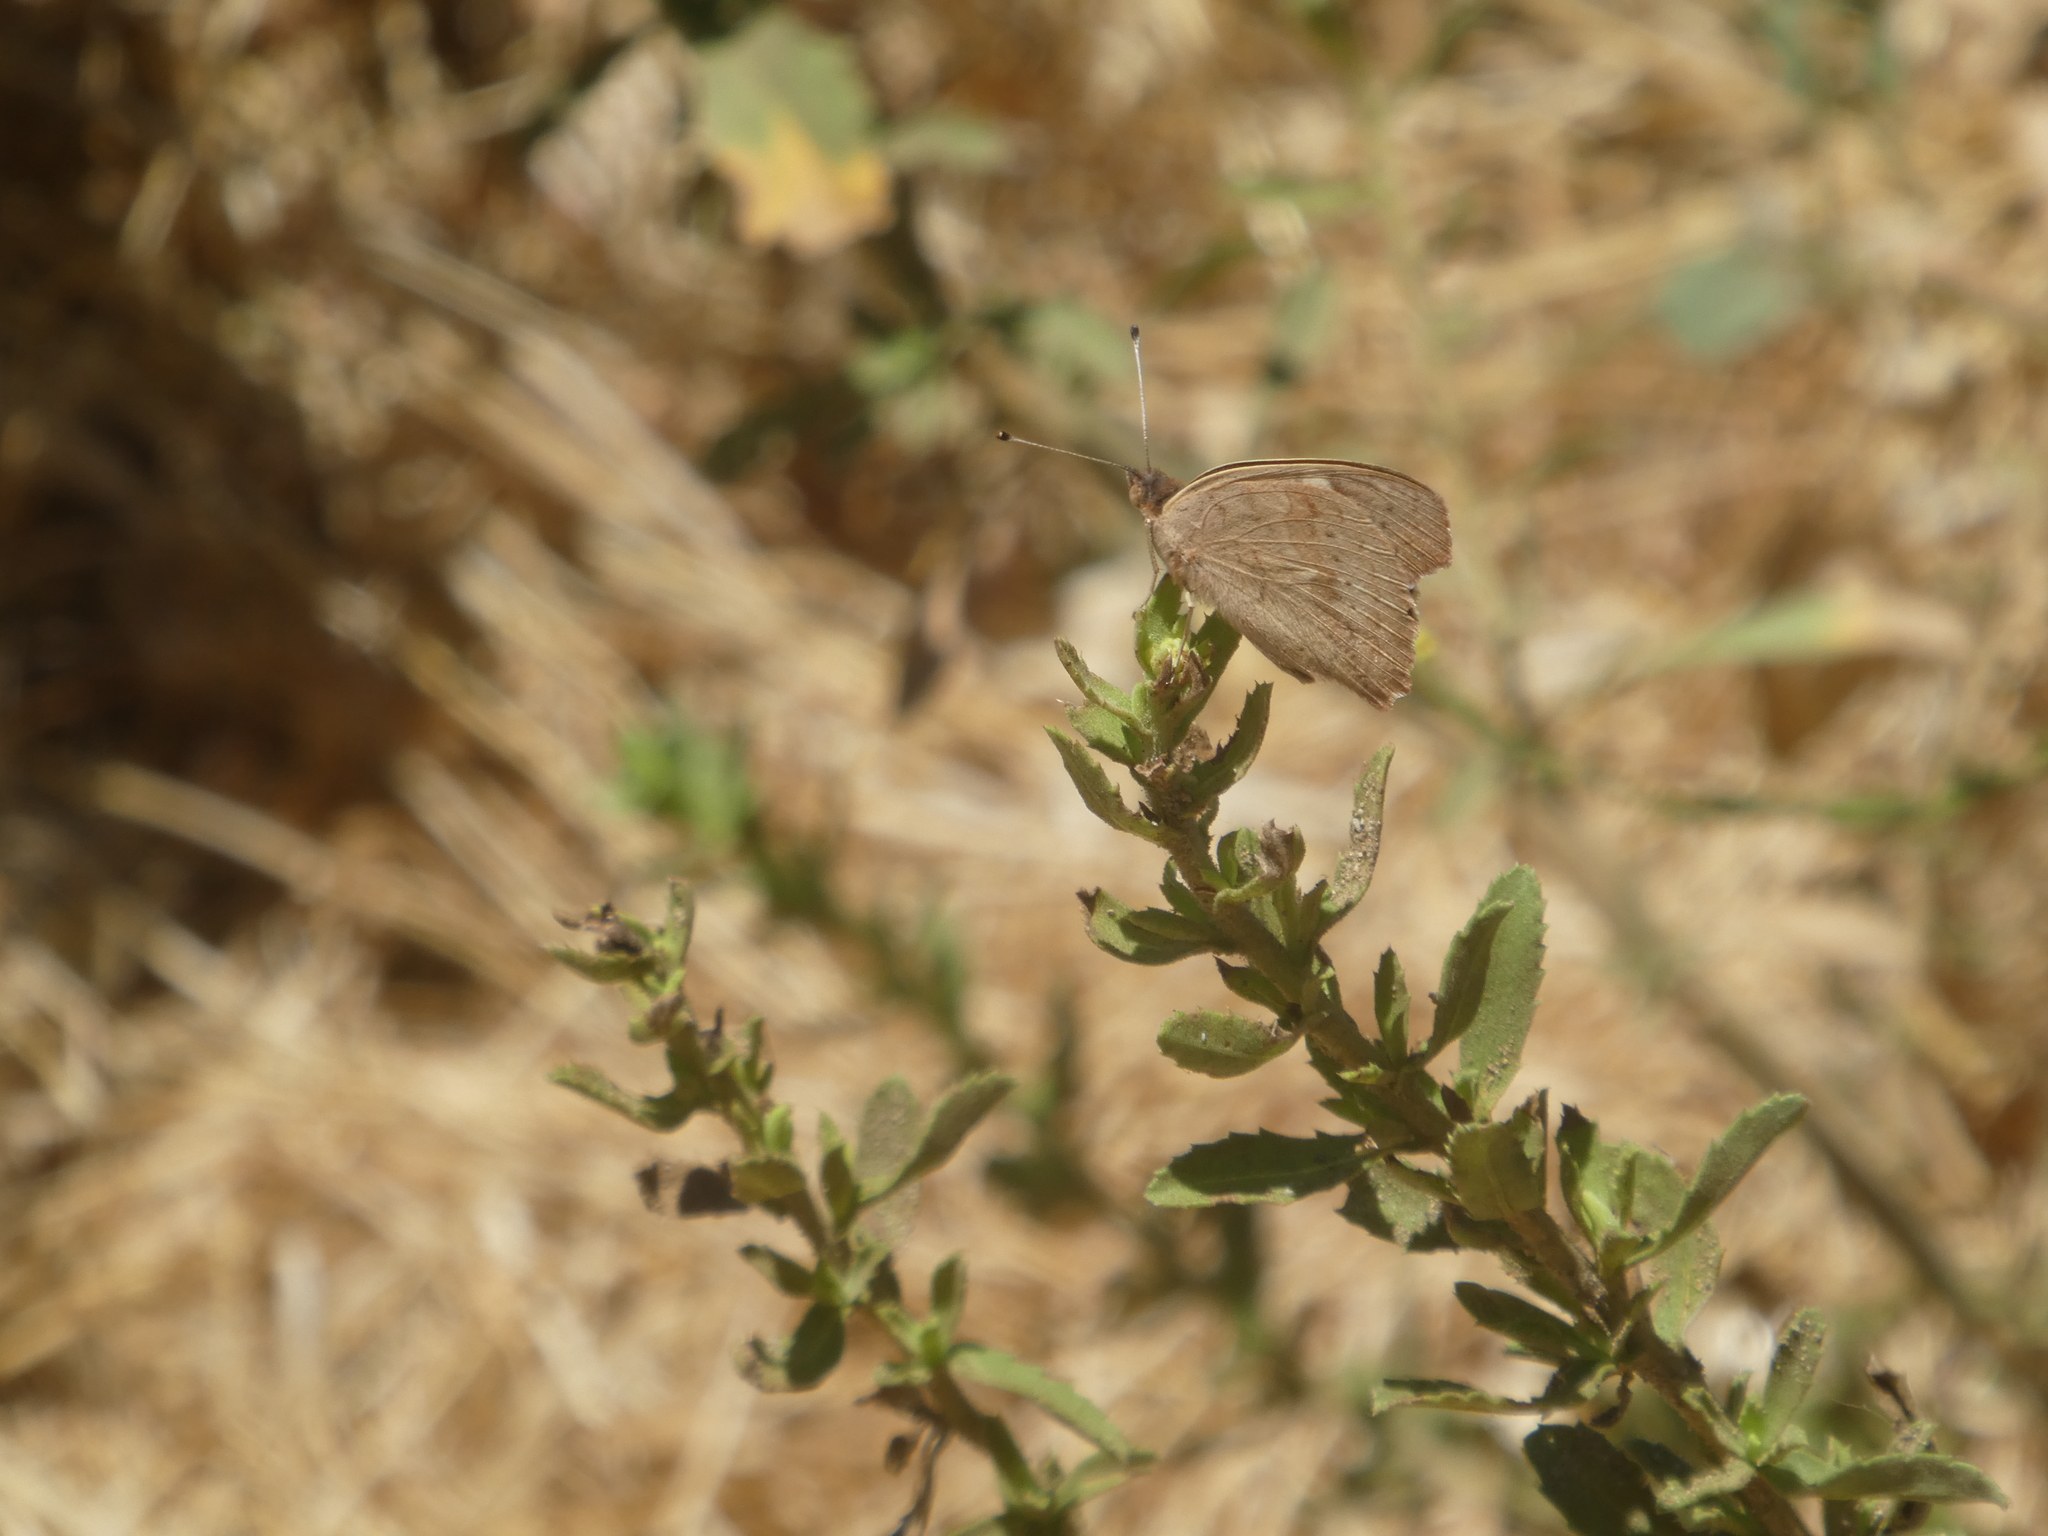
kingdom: Animalia
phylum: Arthropoda
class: Insecta
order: Lepidoptera
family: Nymphalidae
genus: Junonia
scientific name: Junonia grisea
